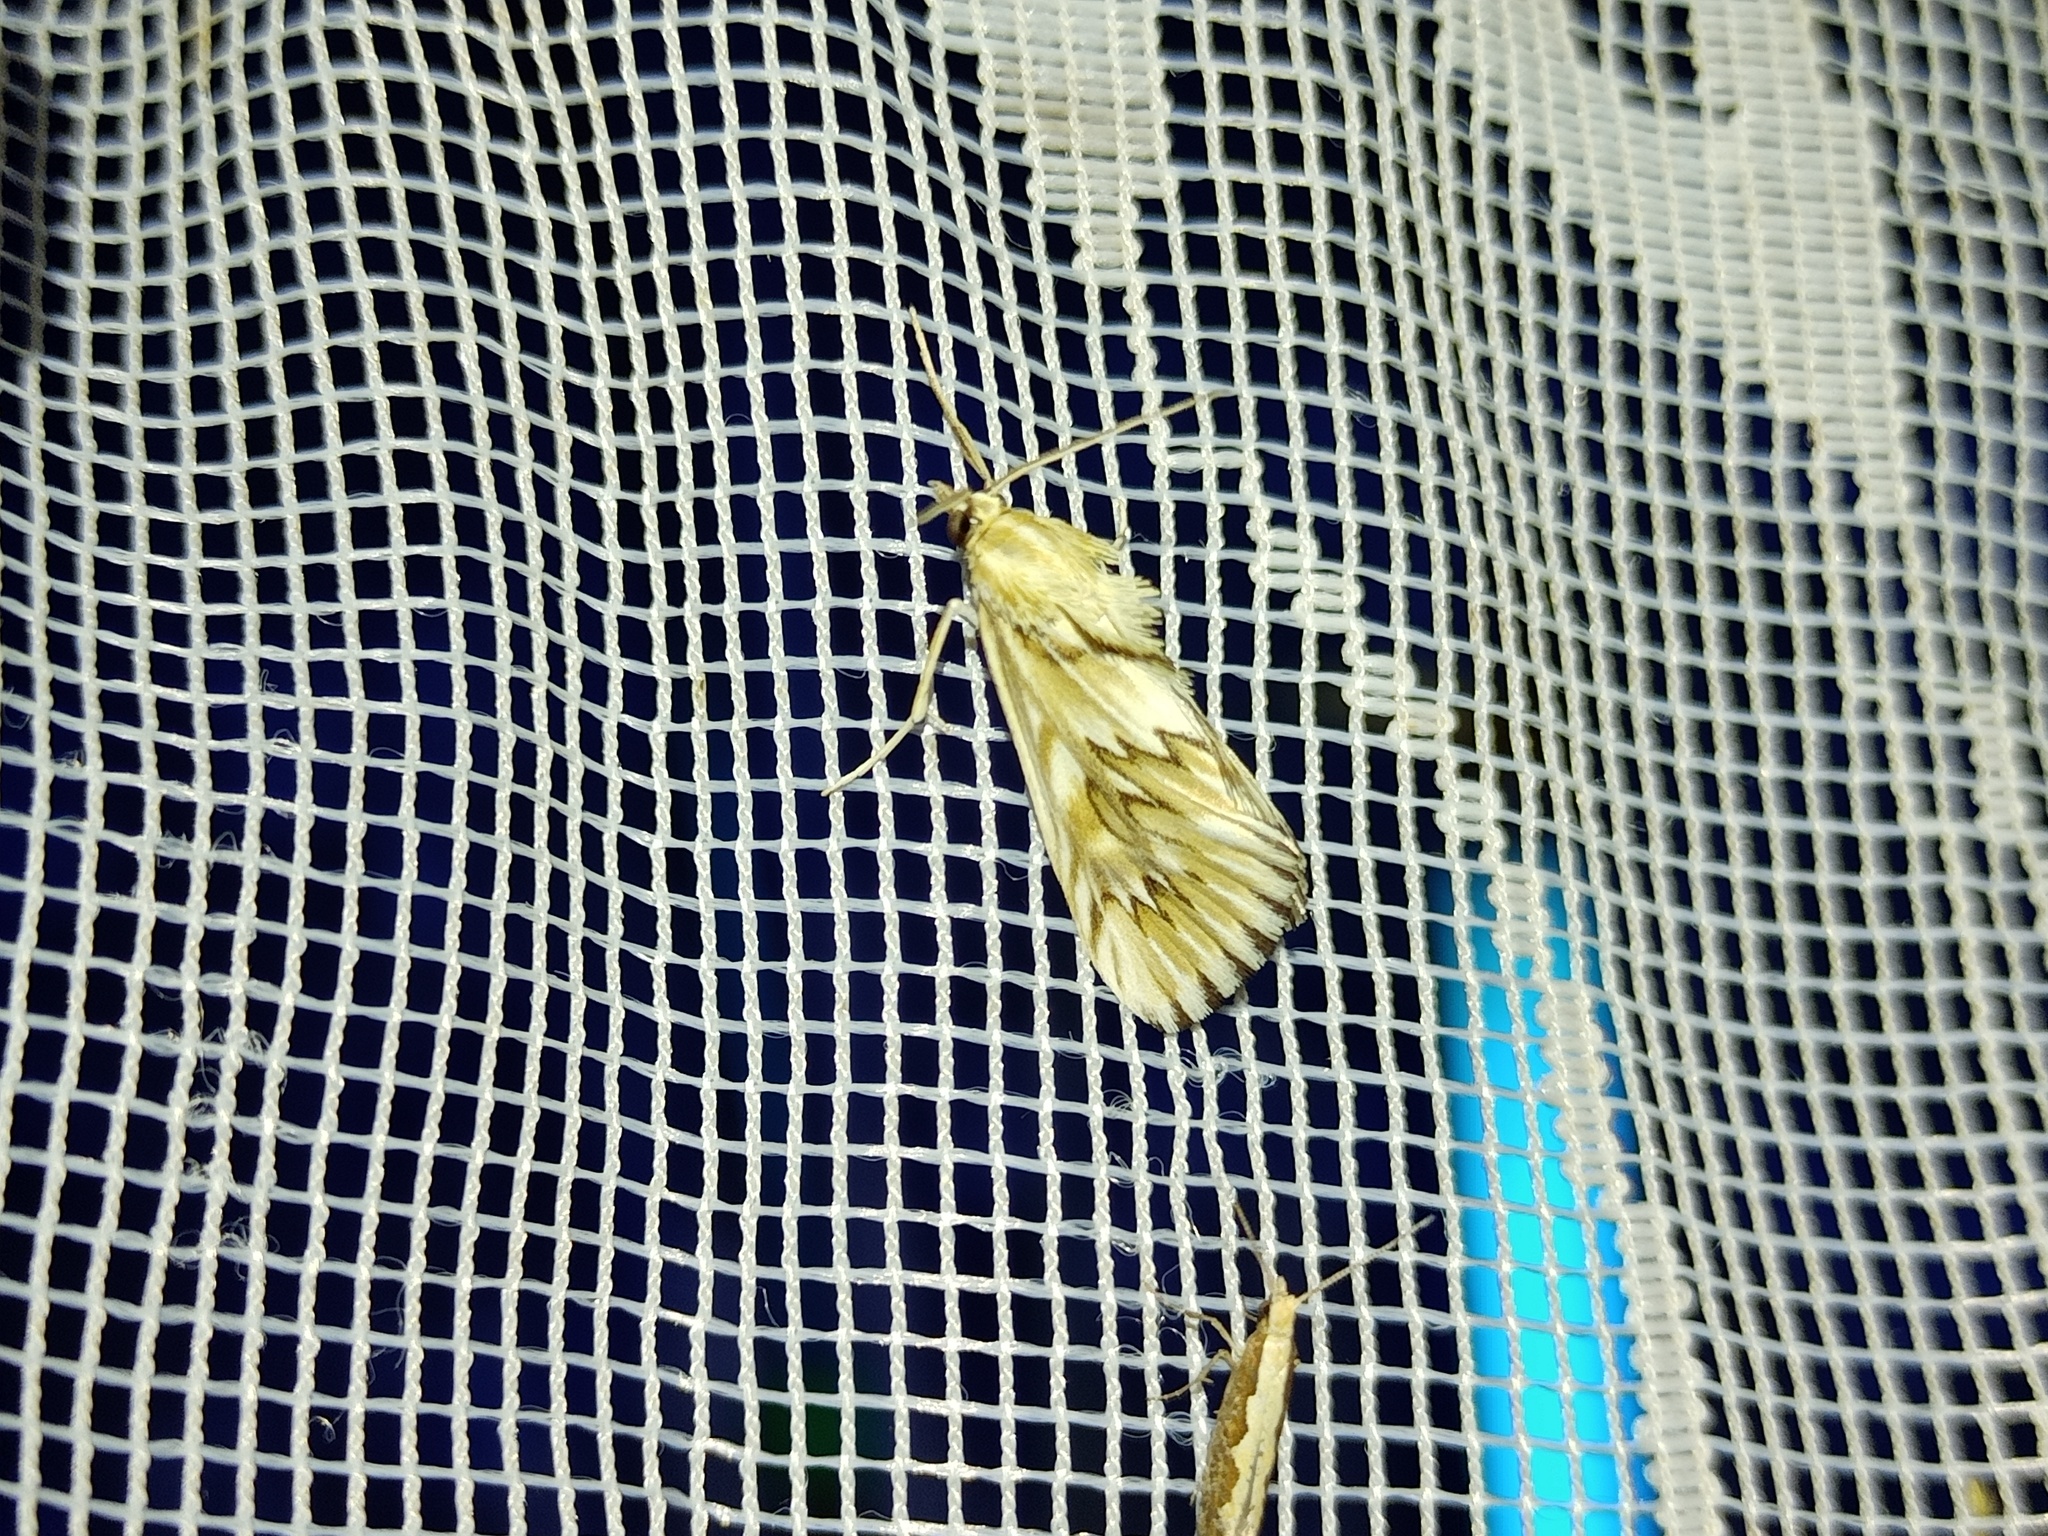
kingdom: Animalia
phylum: Arthropoda
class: Insecta
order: Lepidoptera
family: Crambidae
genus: Cynaeda
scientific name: Cynaeda dentalis
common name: Starry pearl
